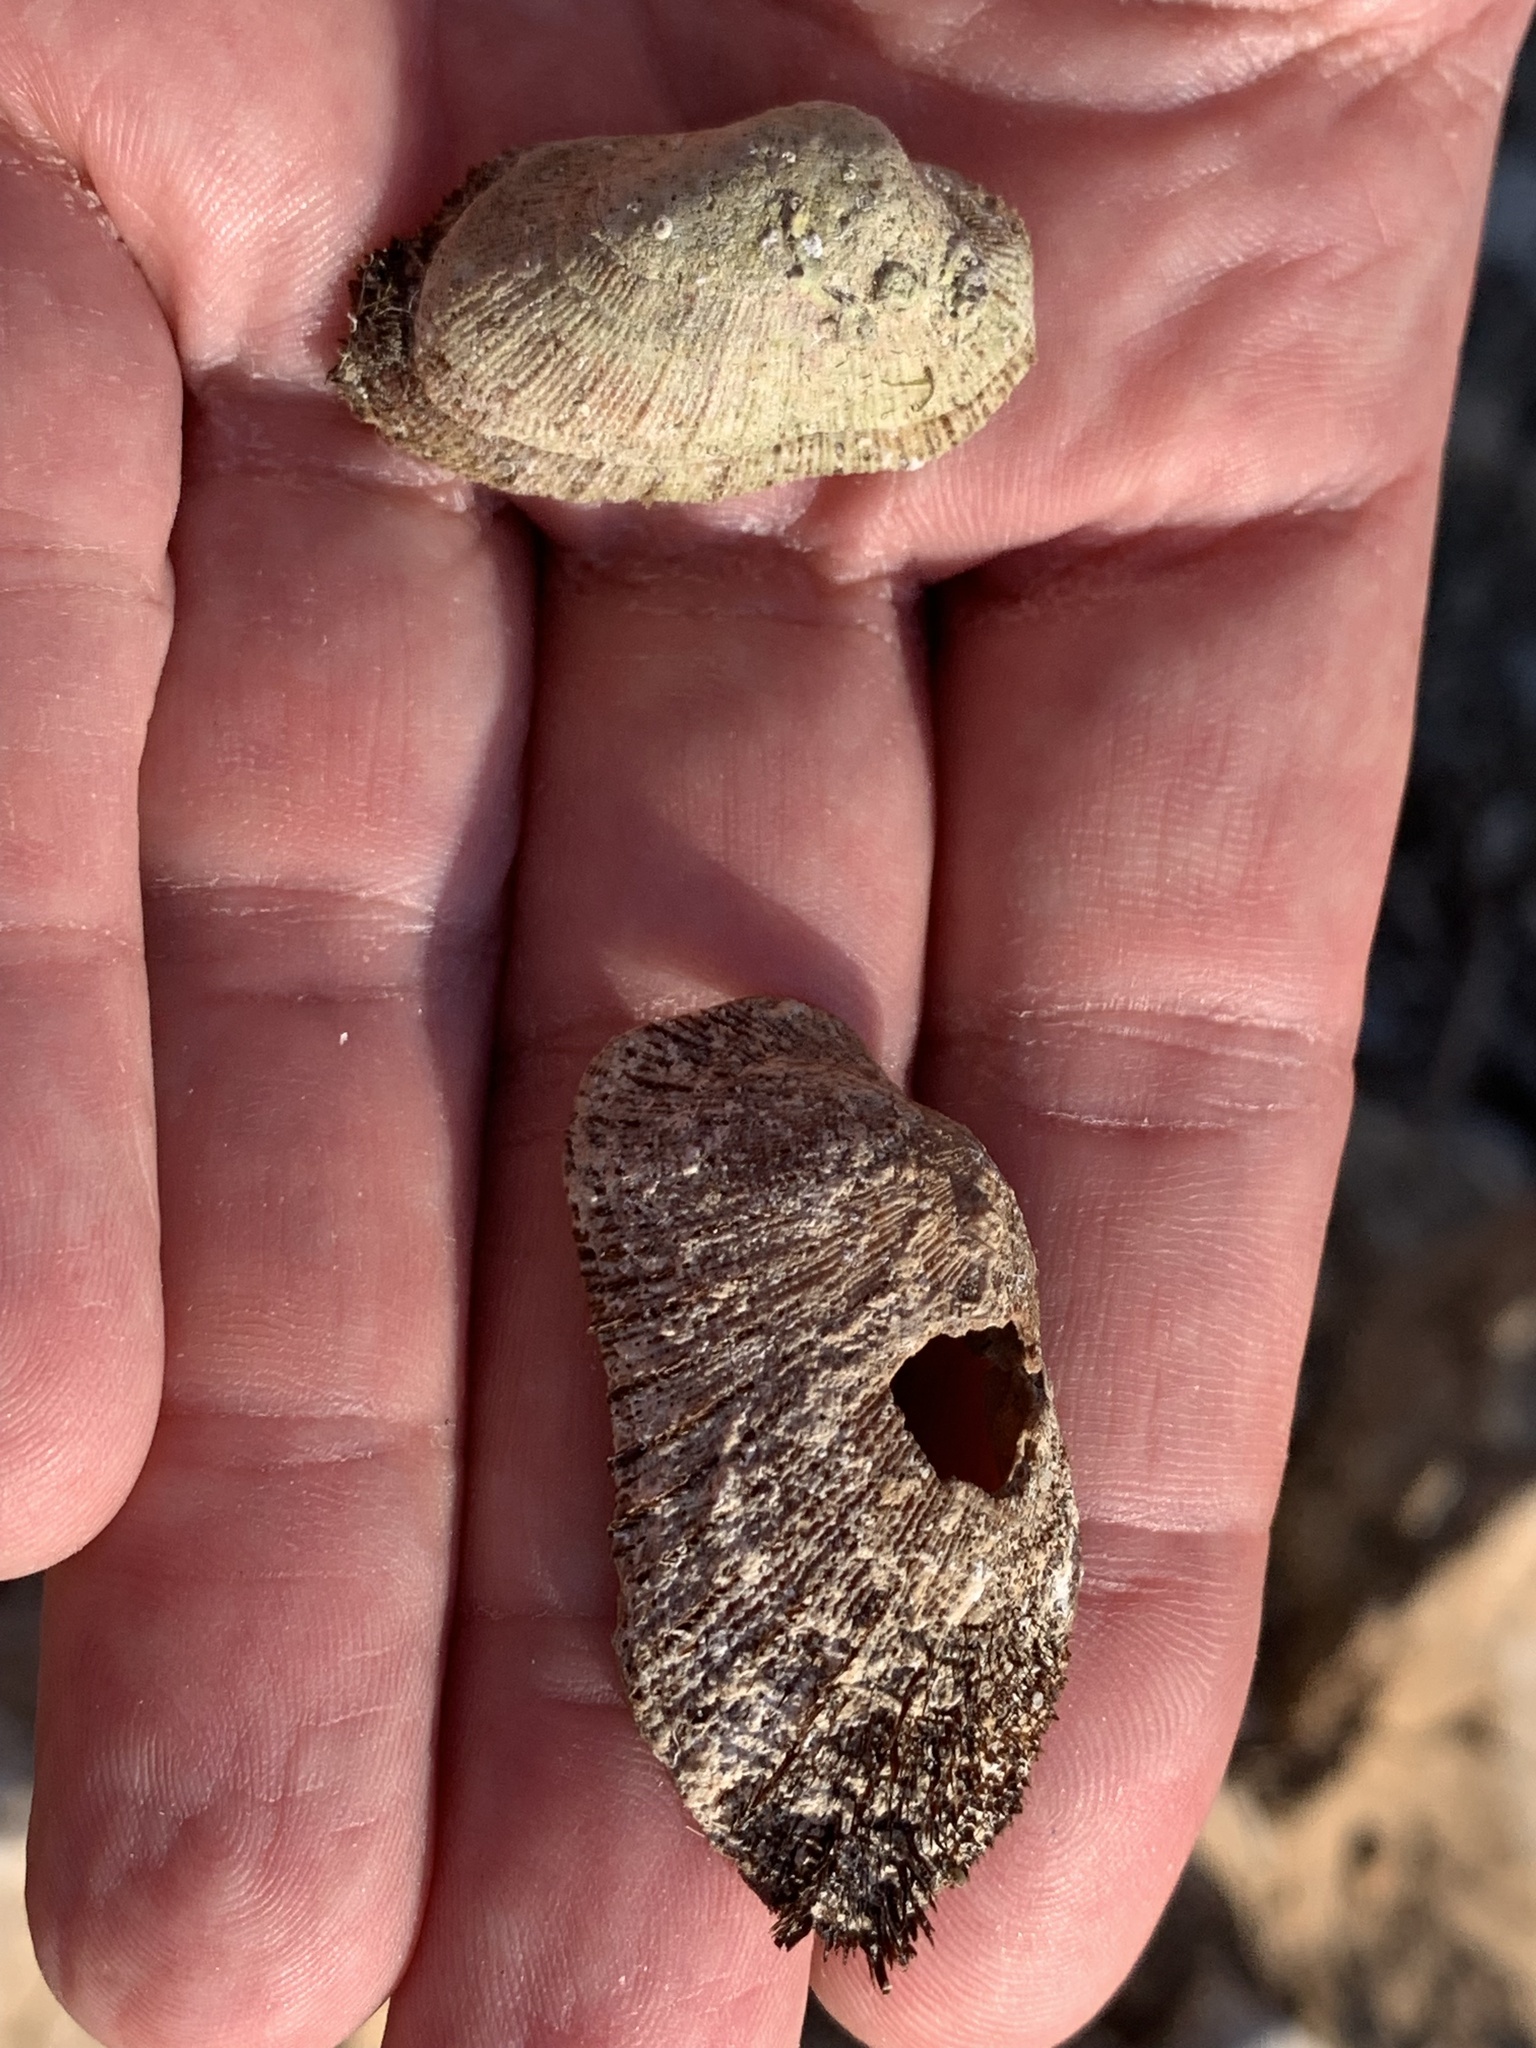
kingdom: Animalia
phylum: Mollusca
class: Bivalvia
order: Arcida
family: Arcidae
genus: Barbatia
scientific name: Barbatia barbata
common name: Bearded ark
